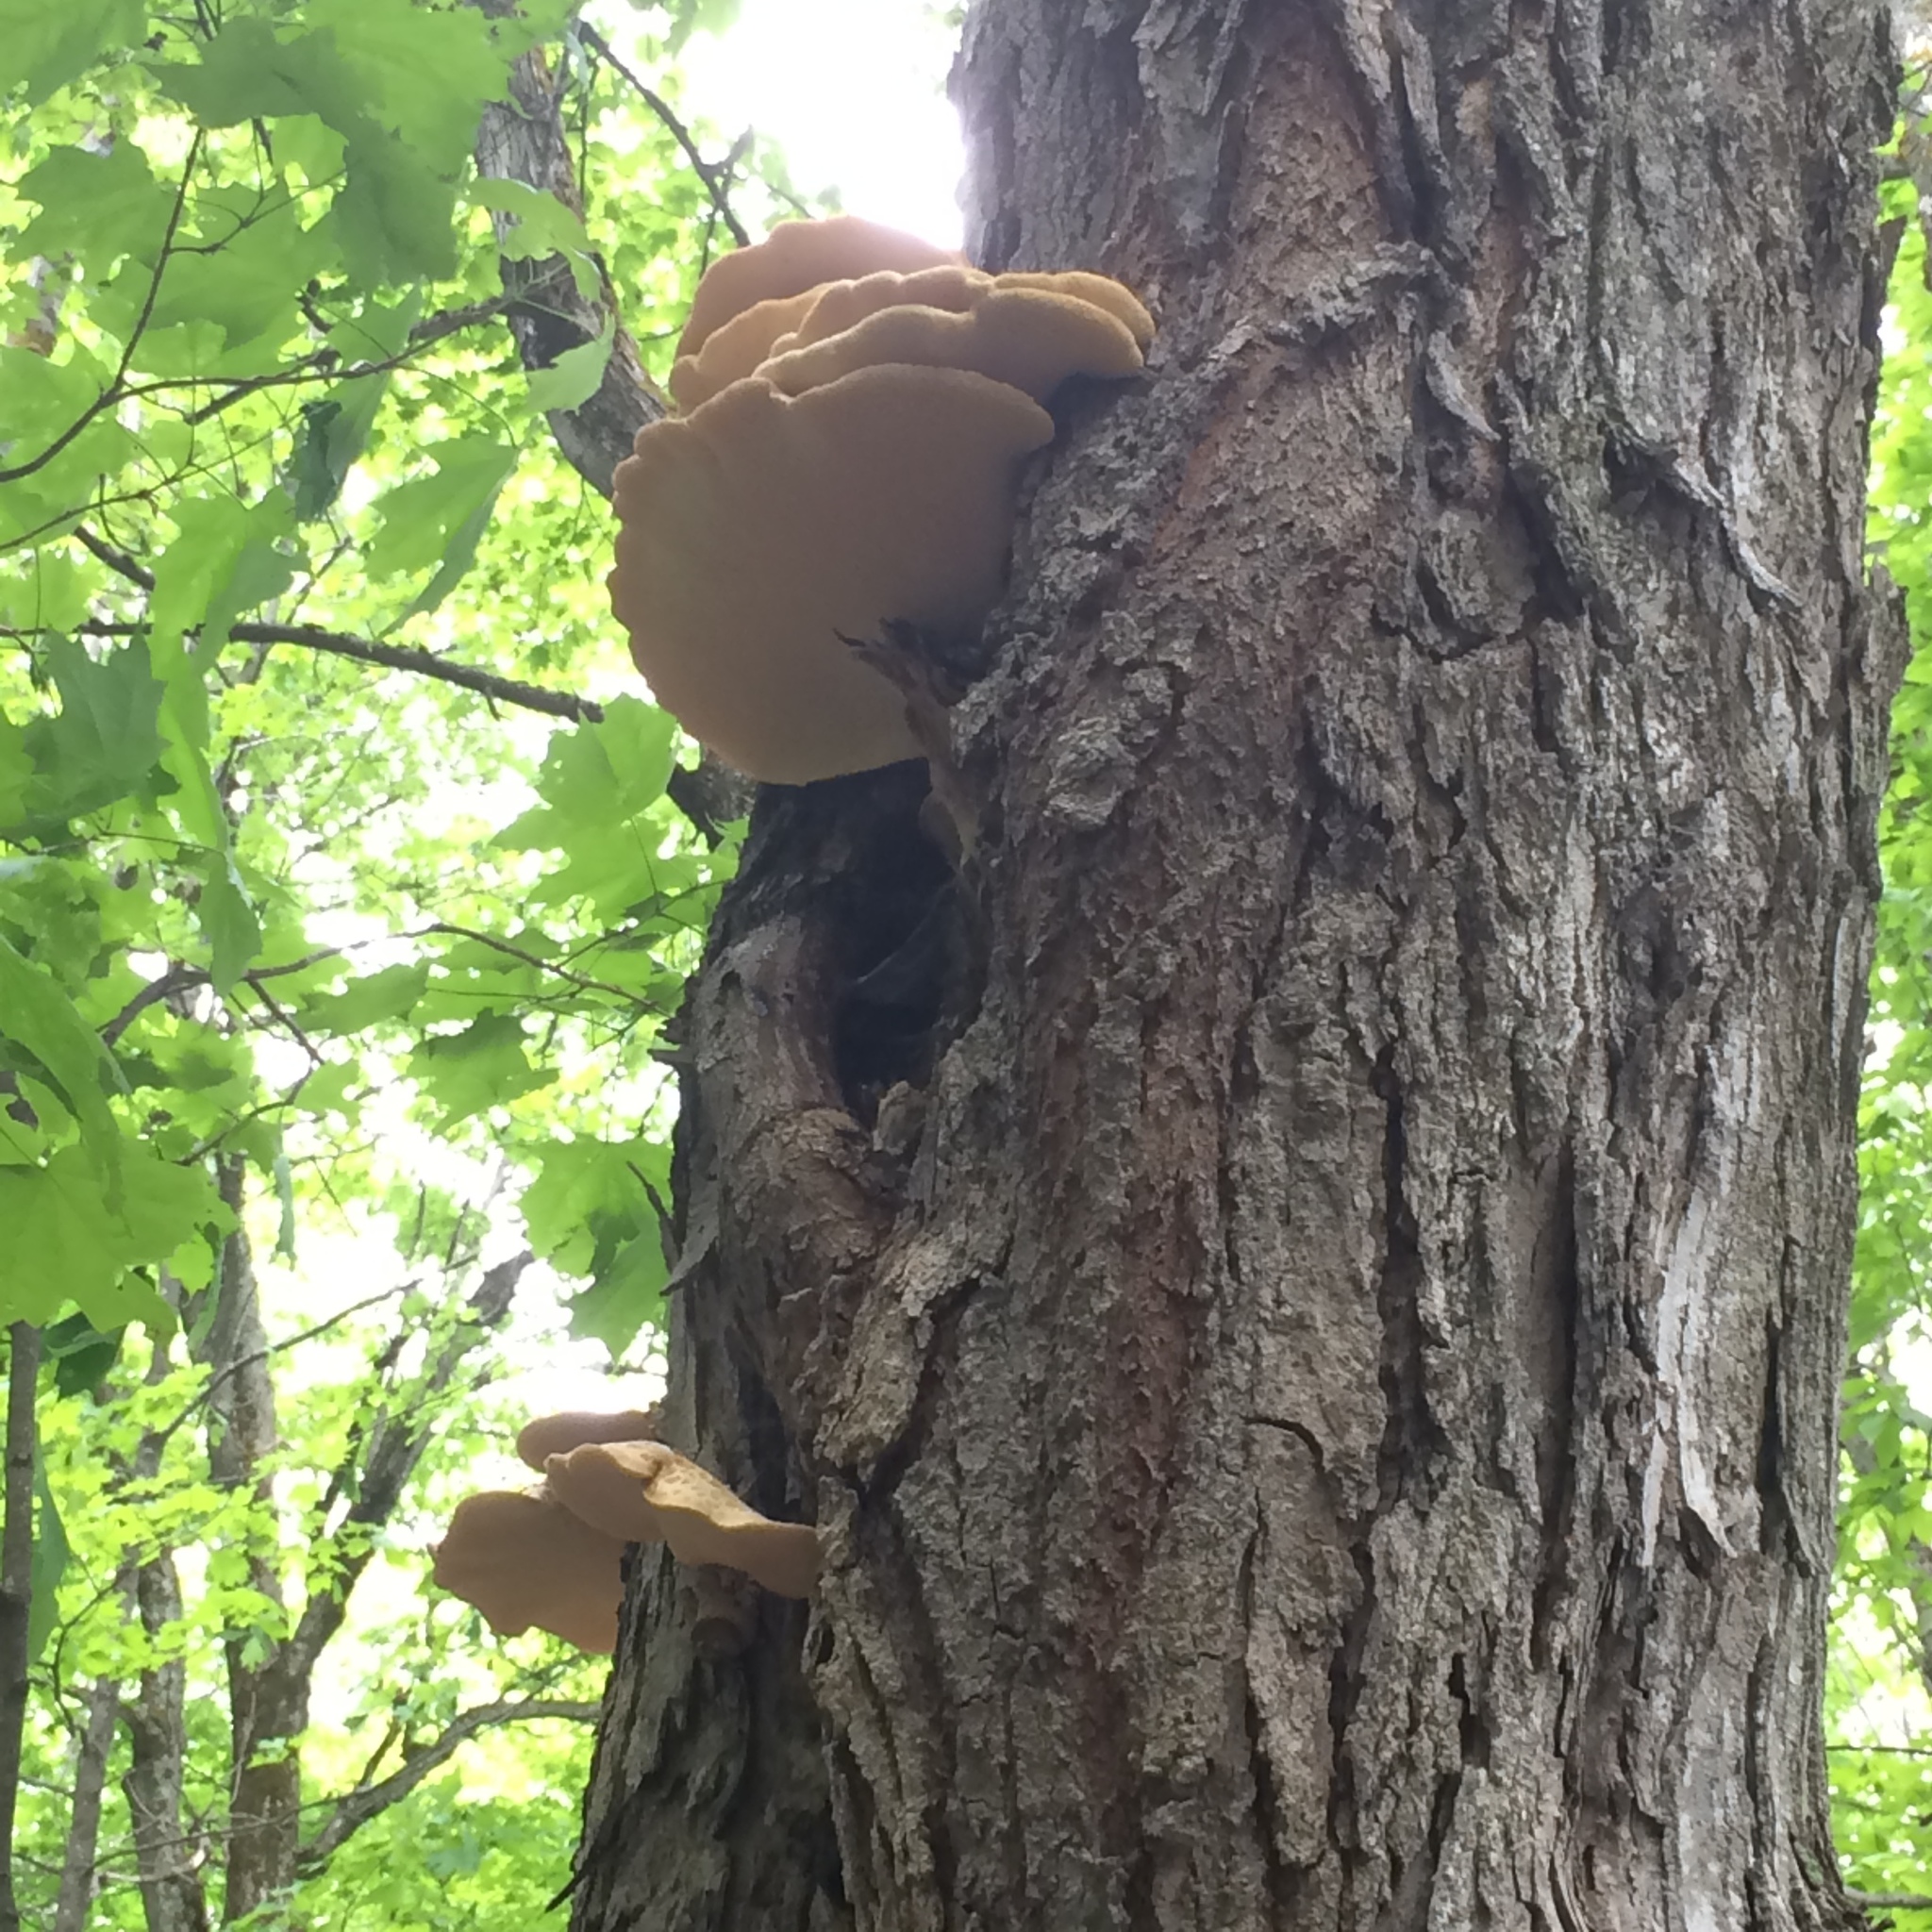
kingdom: Fungi
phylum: Basidiomycota
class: Agaricomycetes
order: Polyporales
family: Polyporaceae
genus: Cerioporus
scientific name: Cerioporus squamosus
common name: Dryad's saddle
